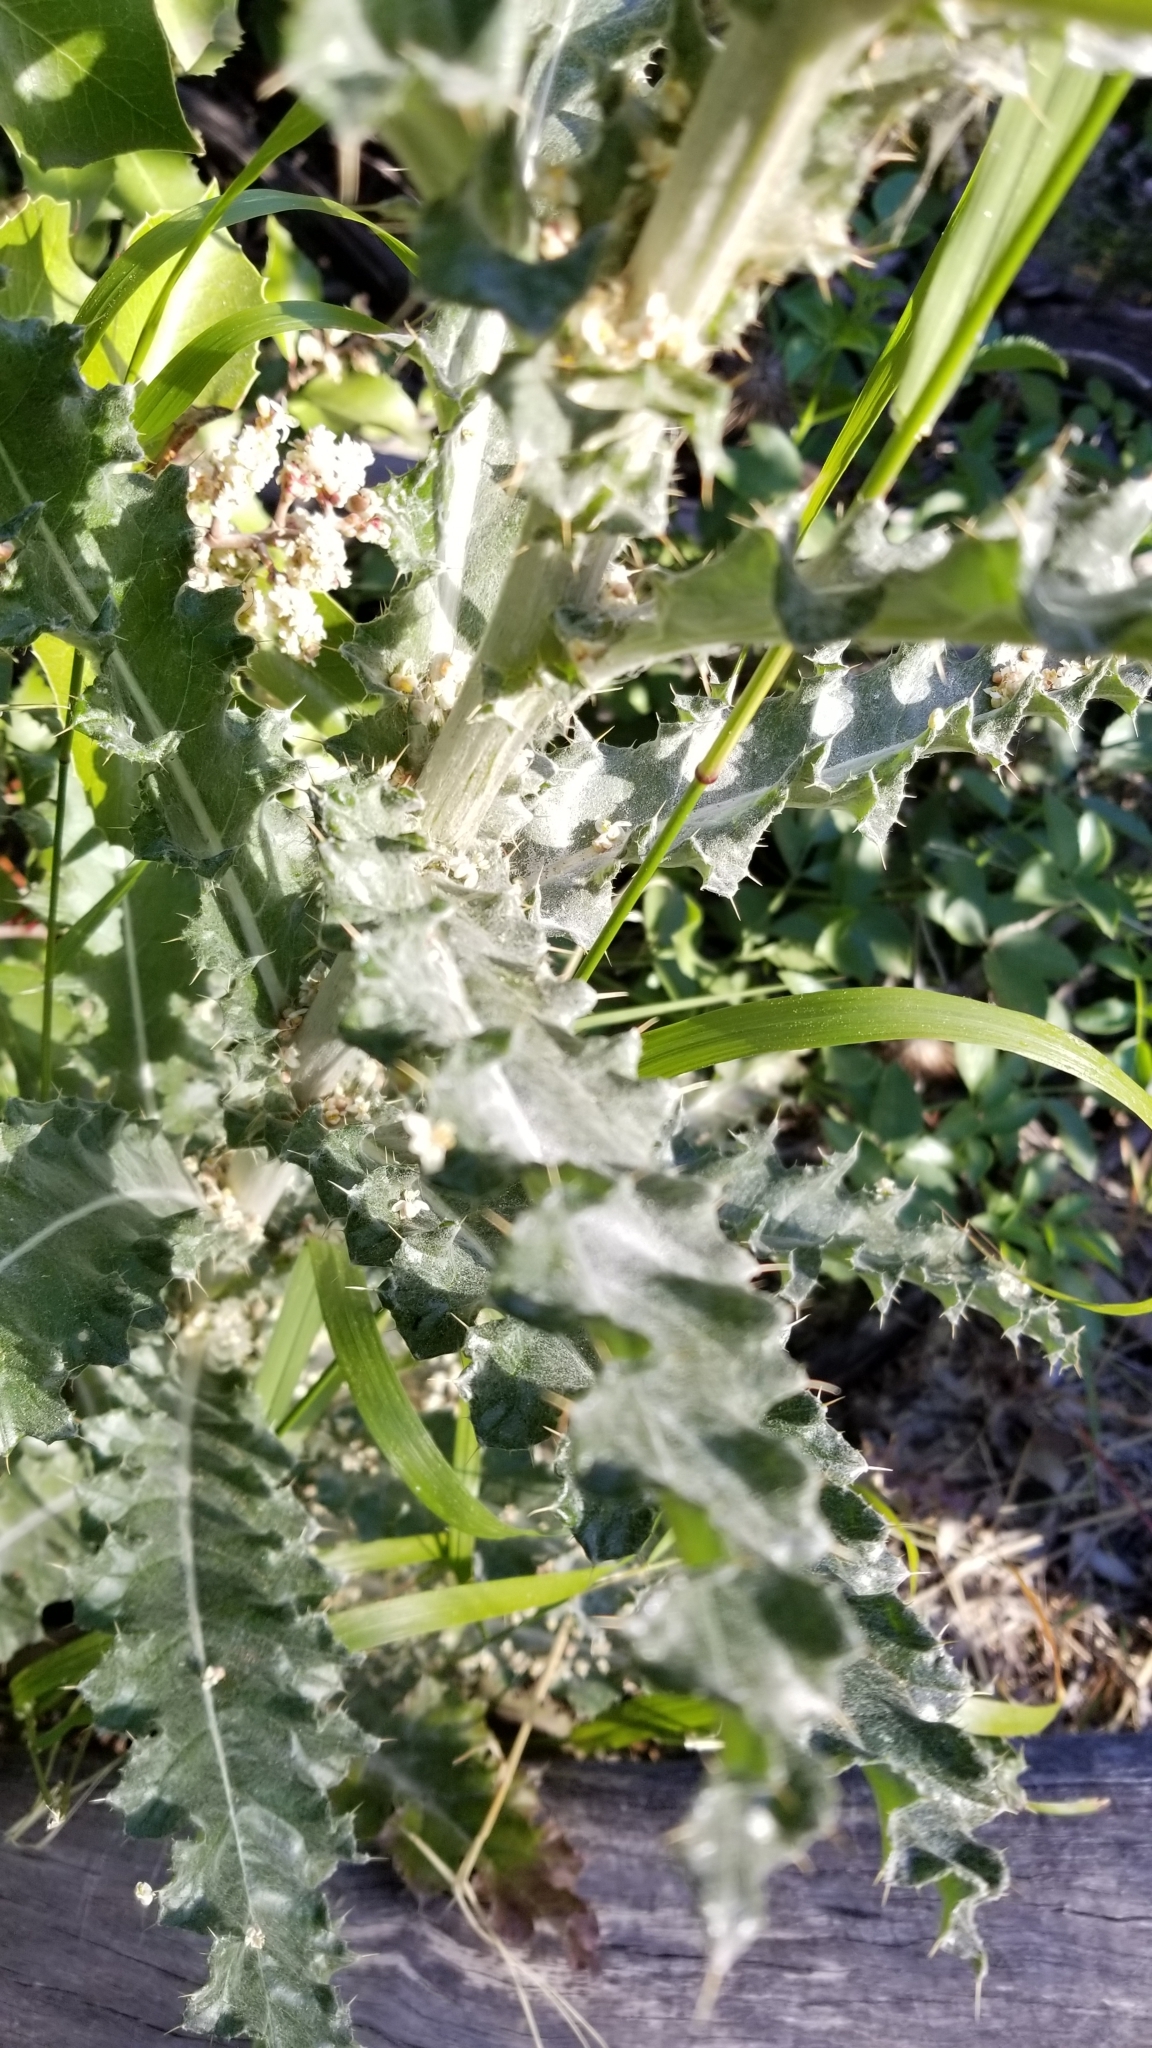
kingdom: Plantae
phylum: Tracheophyta
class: Magnoliopsida
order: Asterales
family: Asteraceae
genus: Cirsium
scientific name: Cirsium occidentale
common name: Western thistle
